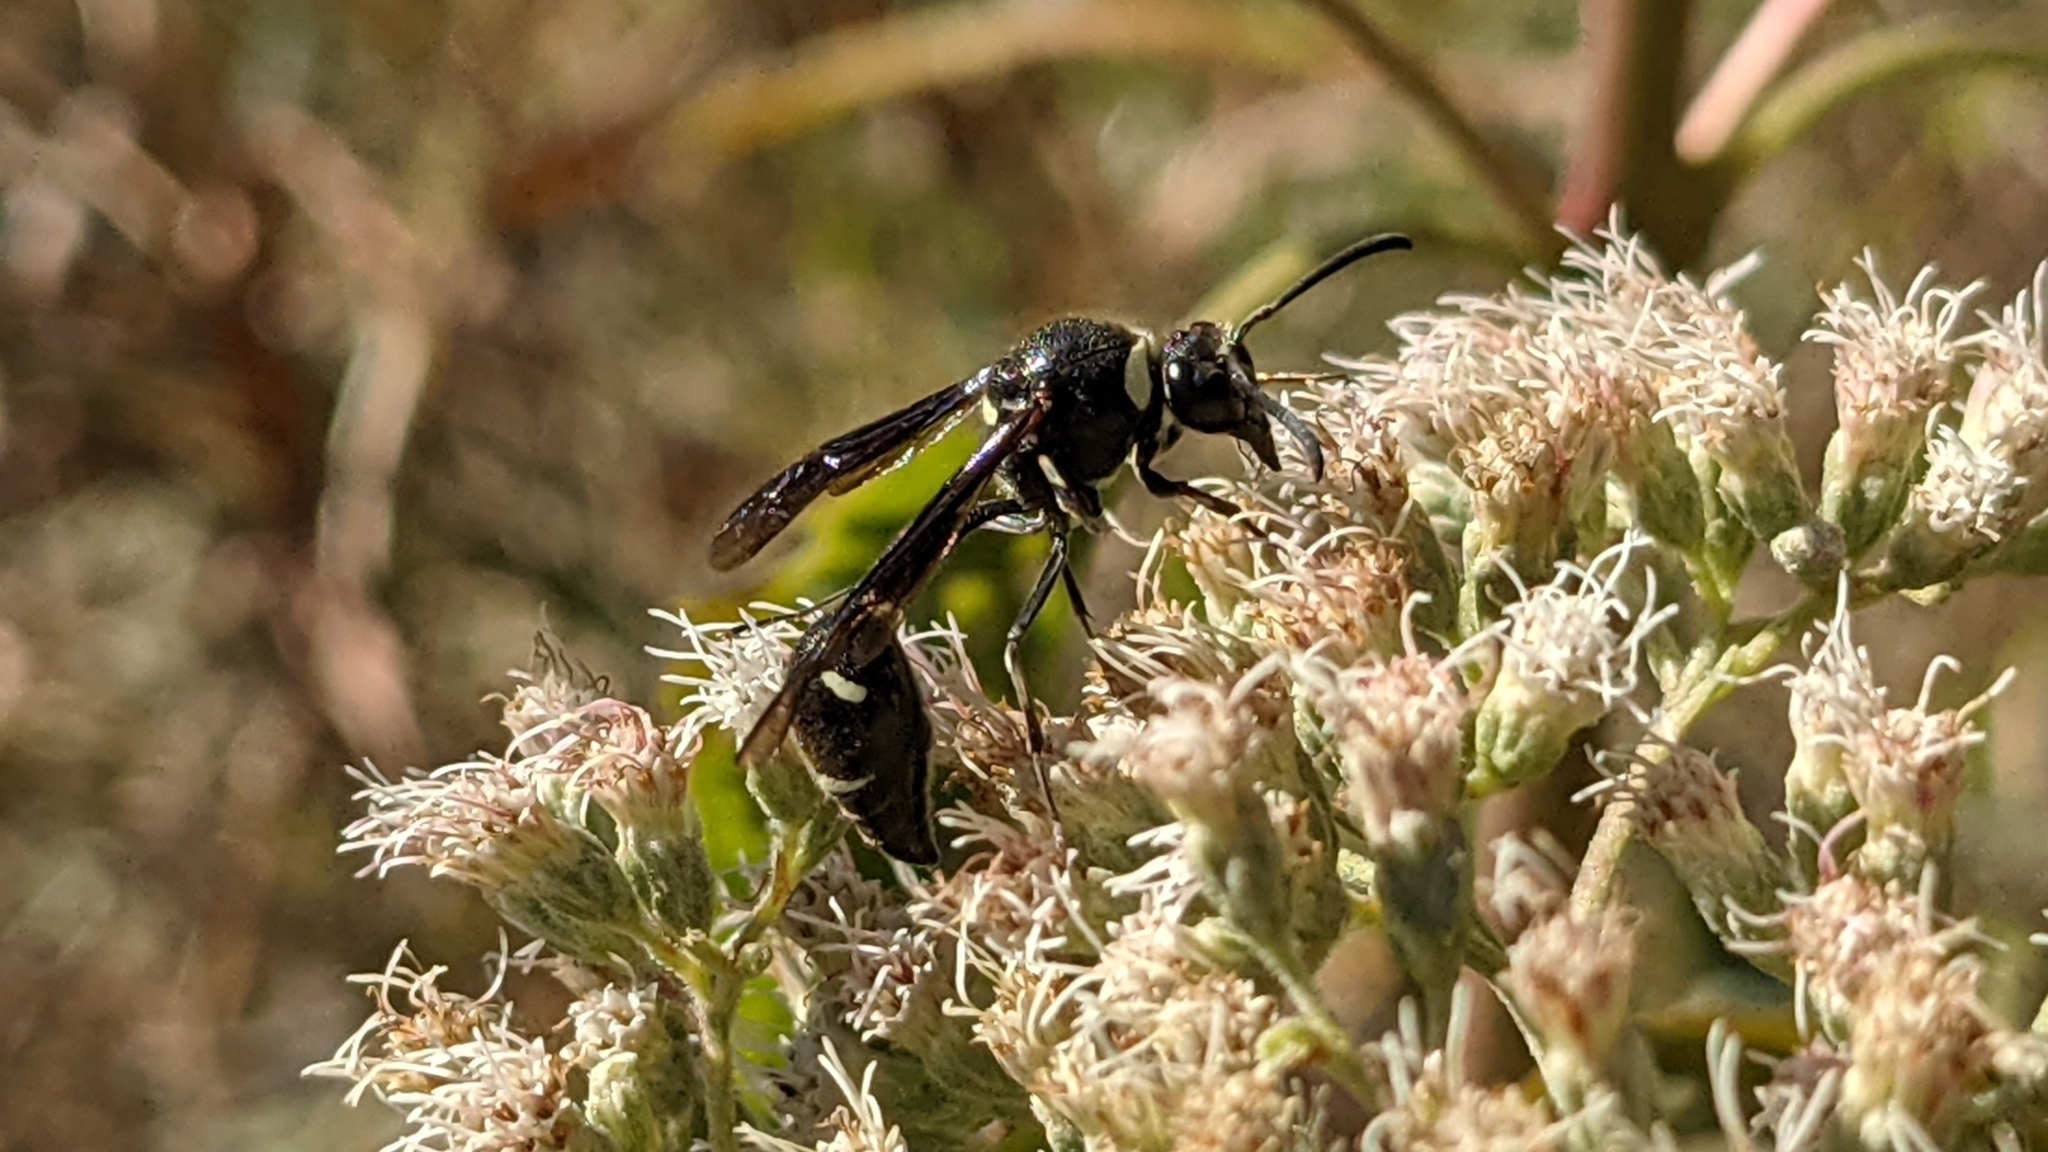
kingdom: Animalia
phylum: Arthropoda
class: Insecta
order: Hymenoptera
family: Vespidae
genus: Eumenes
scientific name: Eumenes fraternus
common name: Fraternal potter wasp
